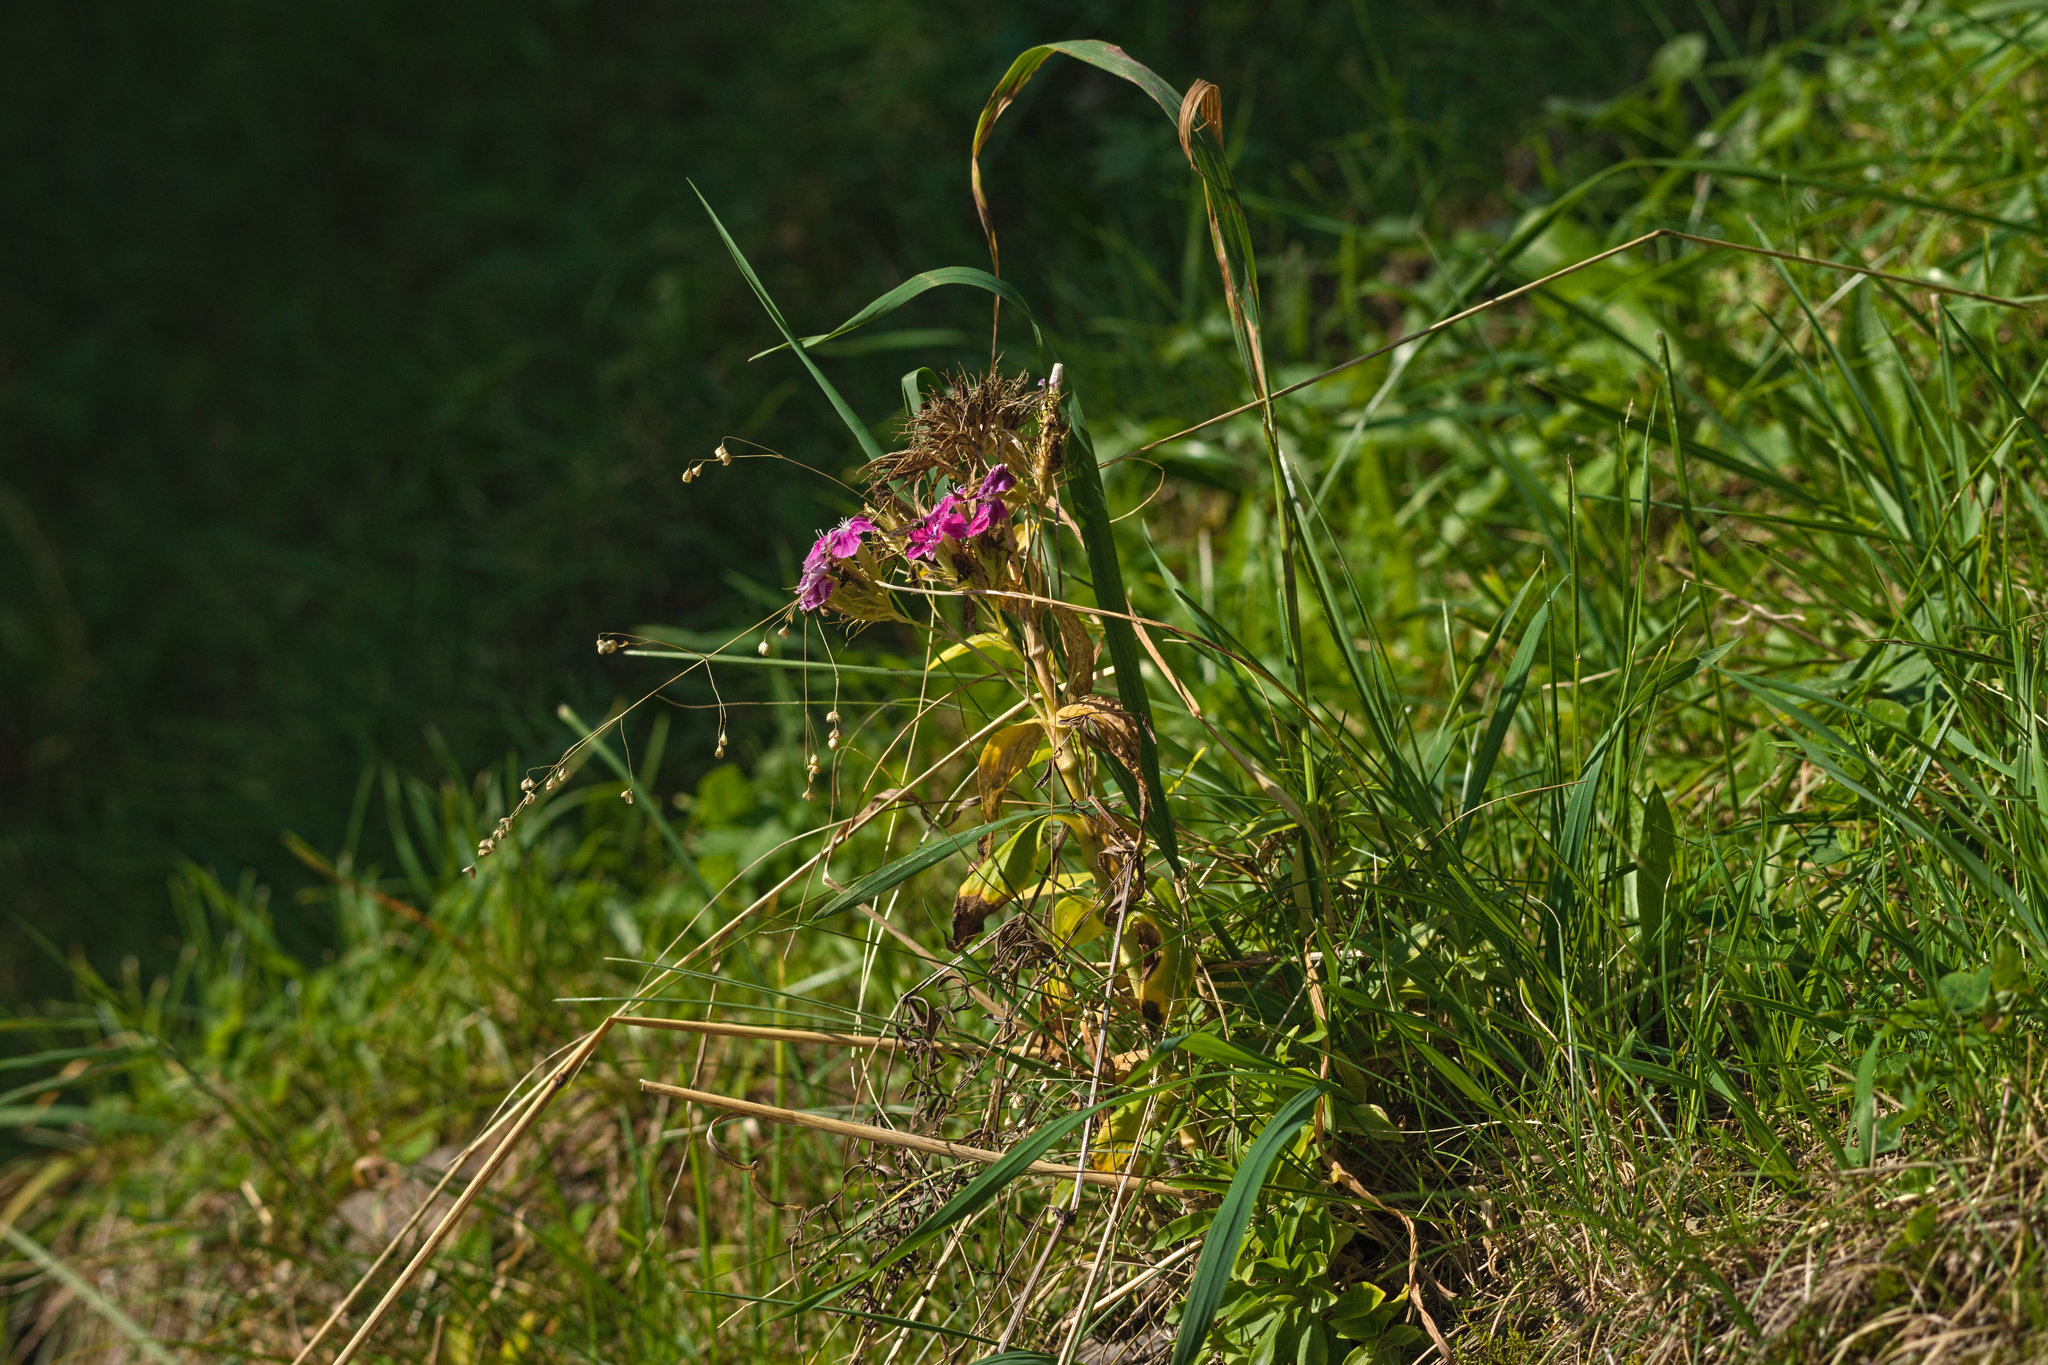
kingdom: Plantae
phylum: Tracheophyta
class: Magnoliopsida
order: Caryophyllales
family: Caryophyllaceae
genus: Dianthus
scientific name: Dianthus barbatus
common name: Sweet-william
